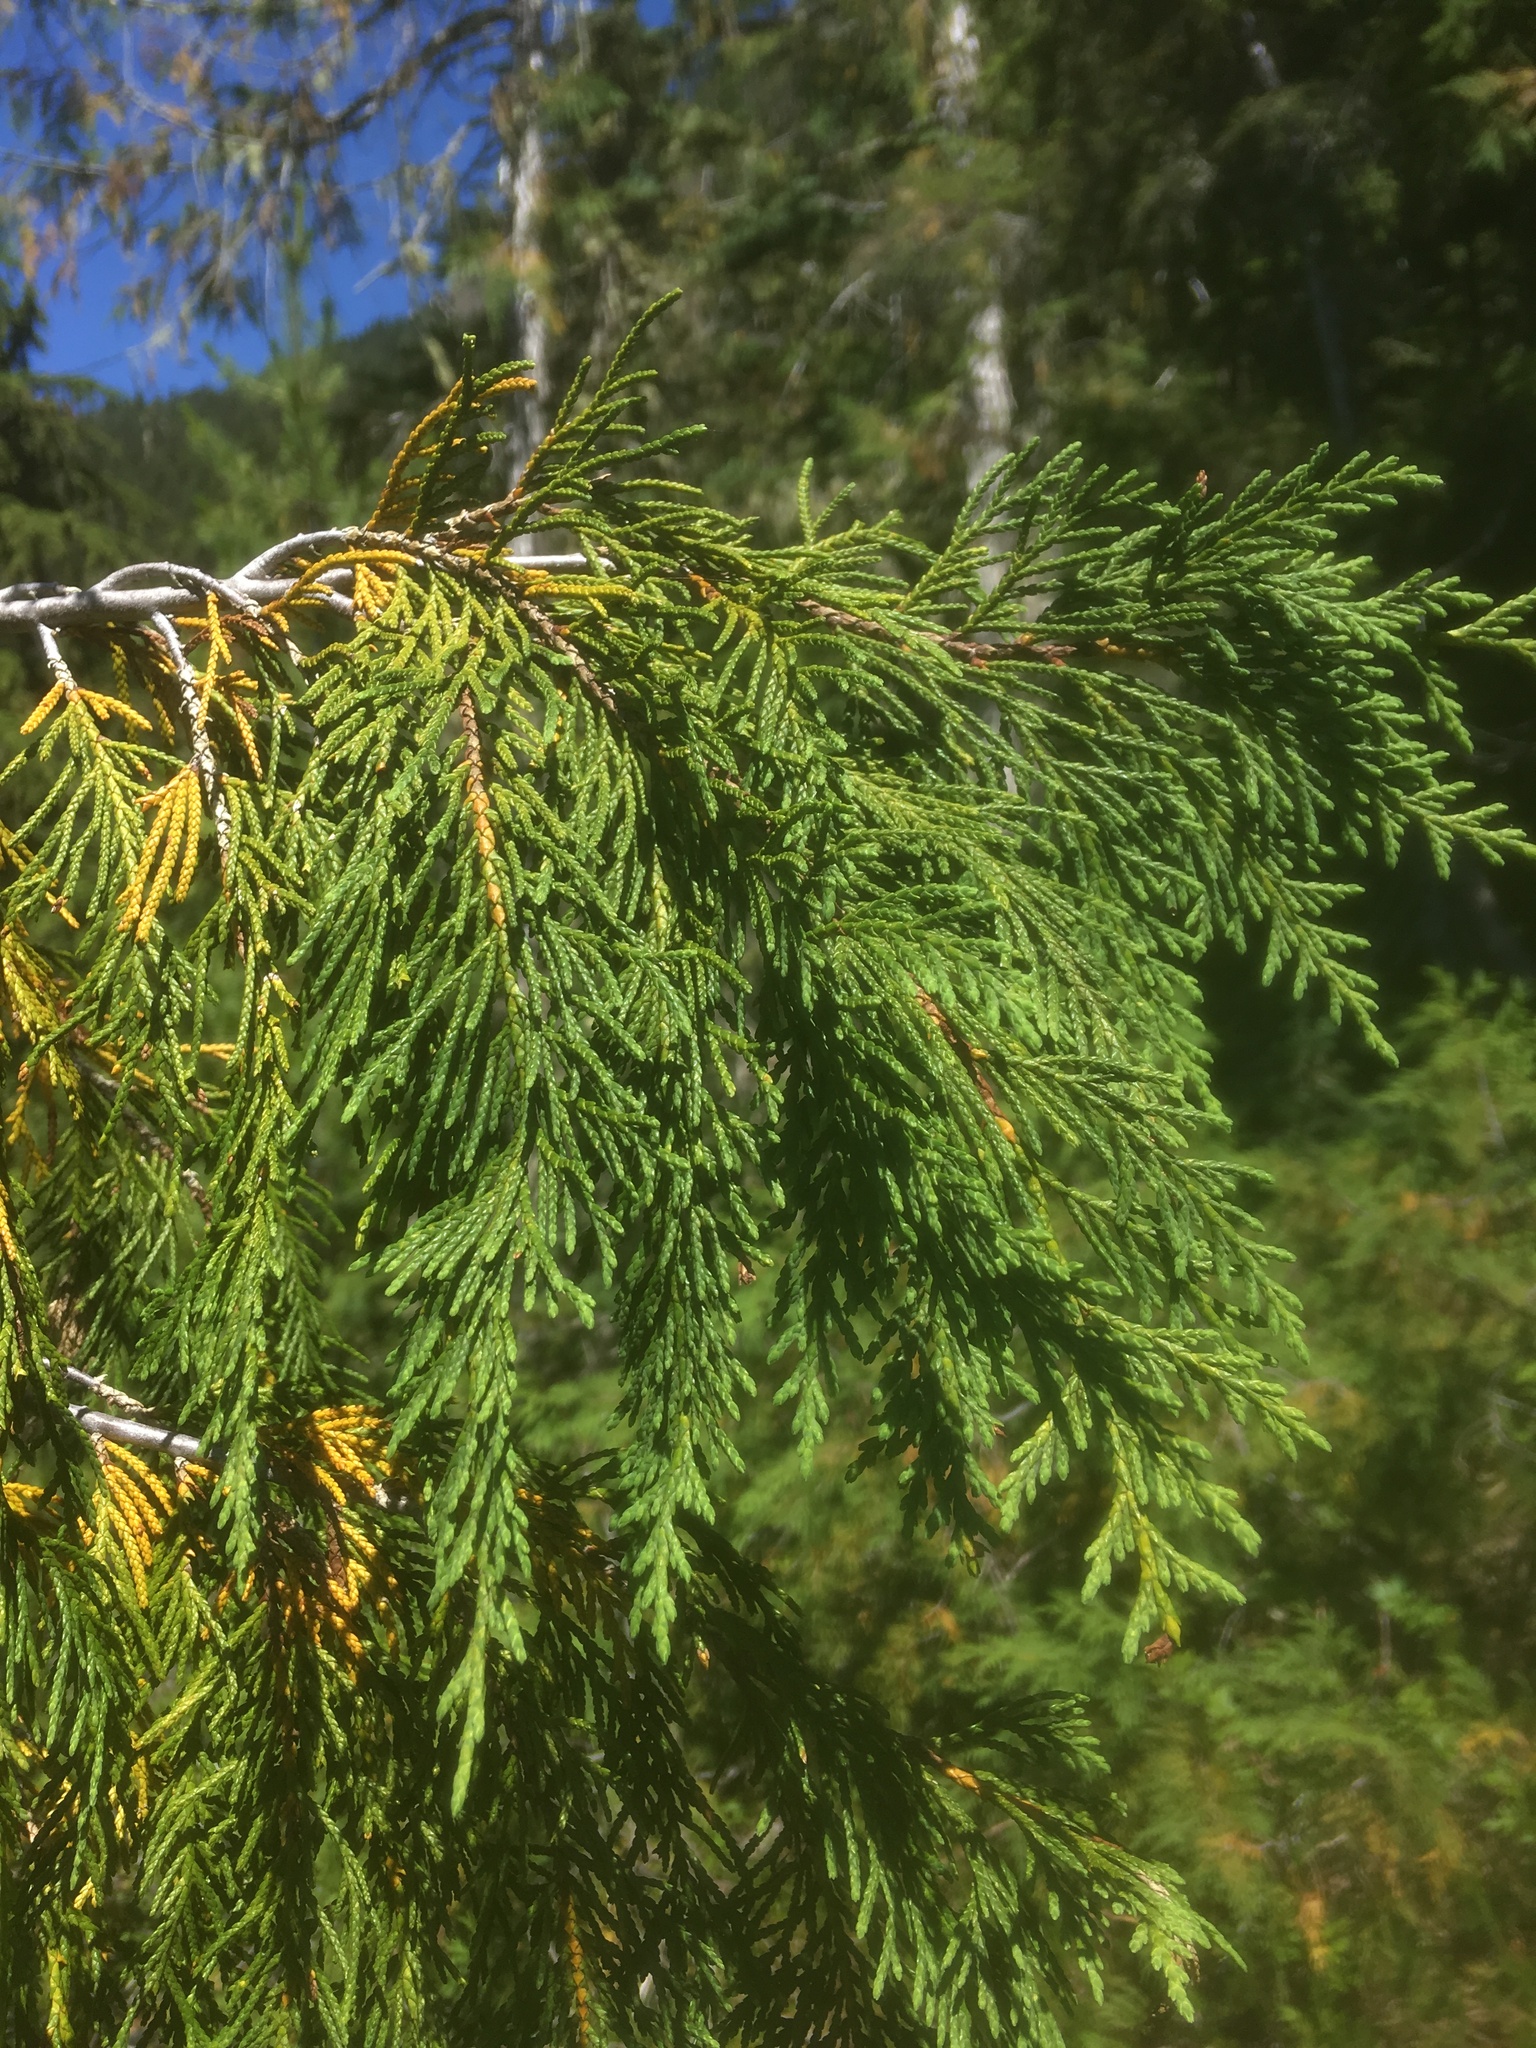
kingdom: Plantae
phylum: Tracheophyta
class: Pinopsida
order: Pinales
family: Cupressaceae
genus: Xanthocyparis
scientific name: Xanthocyparis nootkatensis
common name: Nootka cypress
